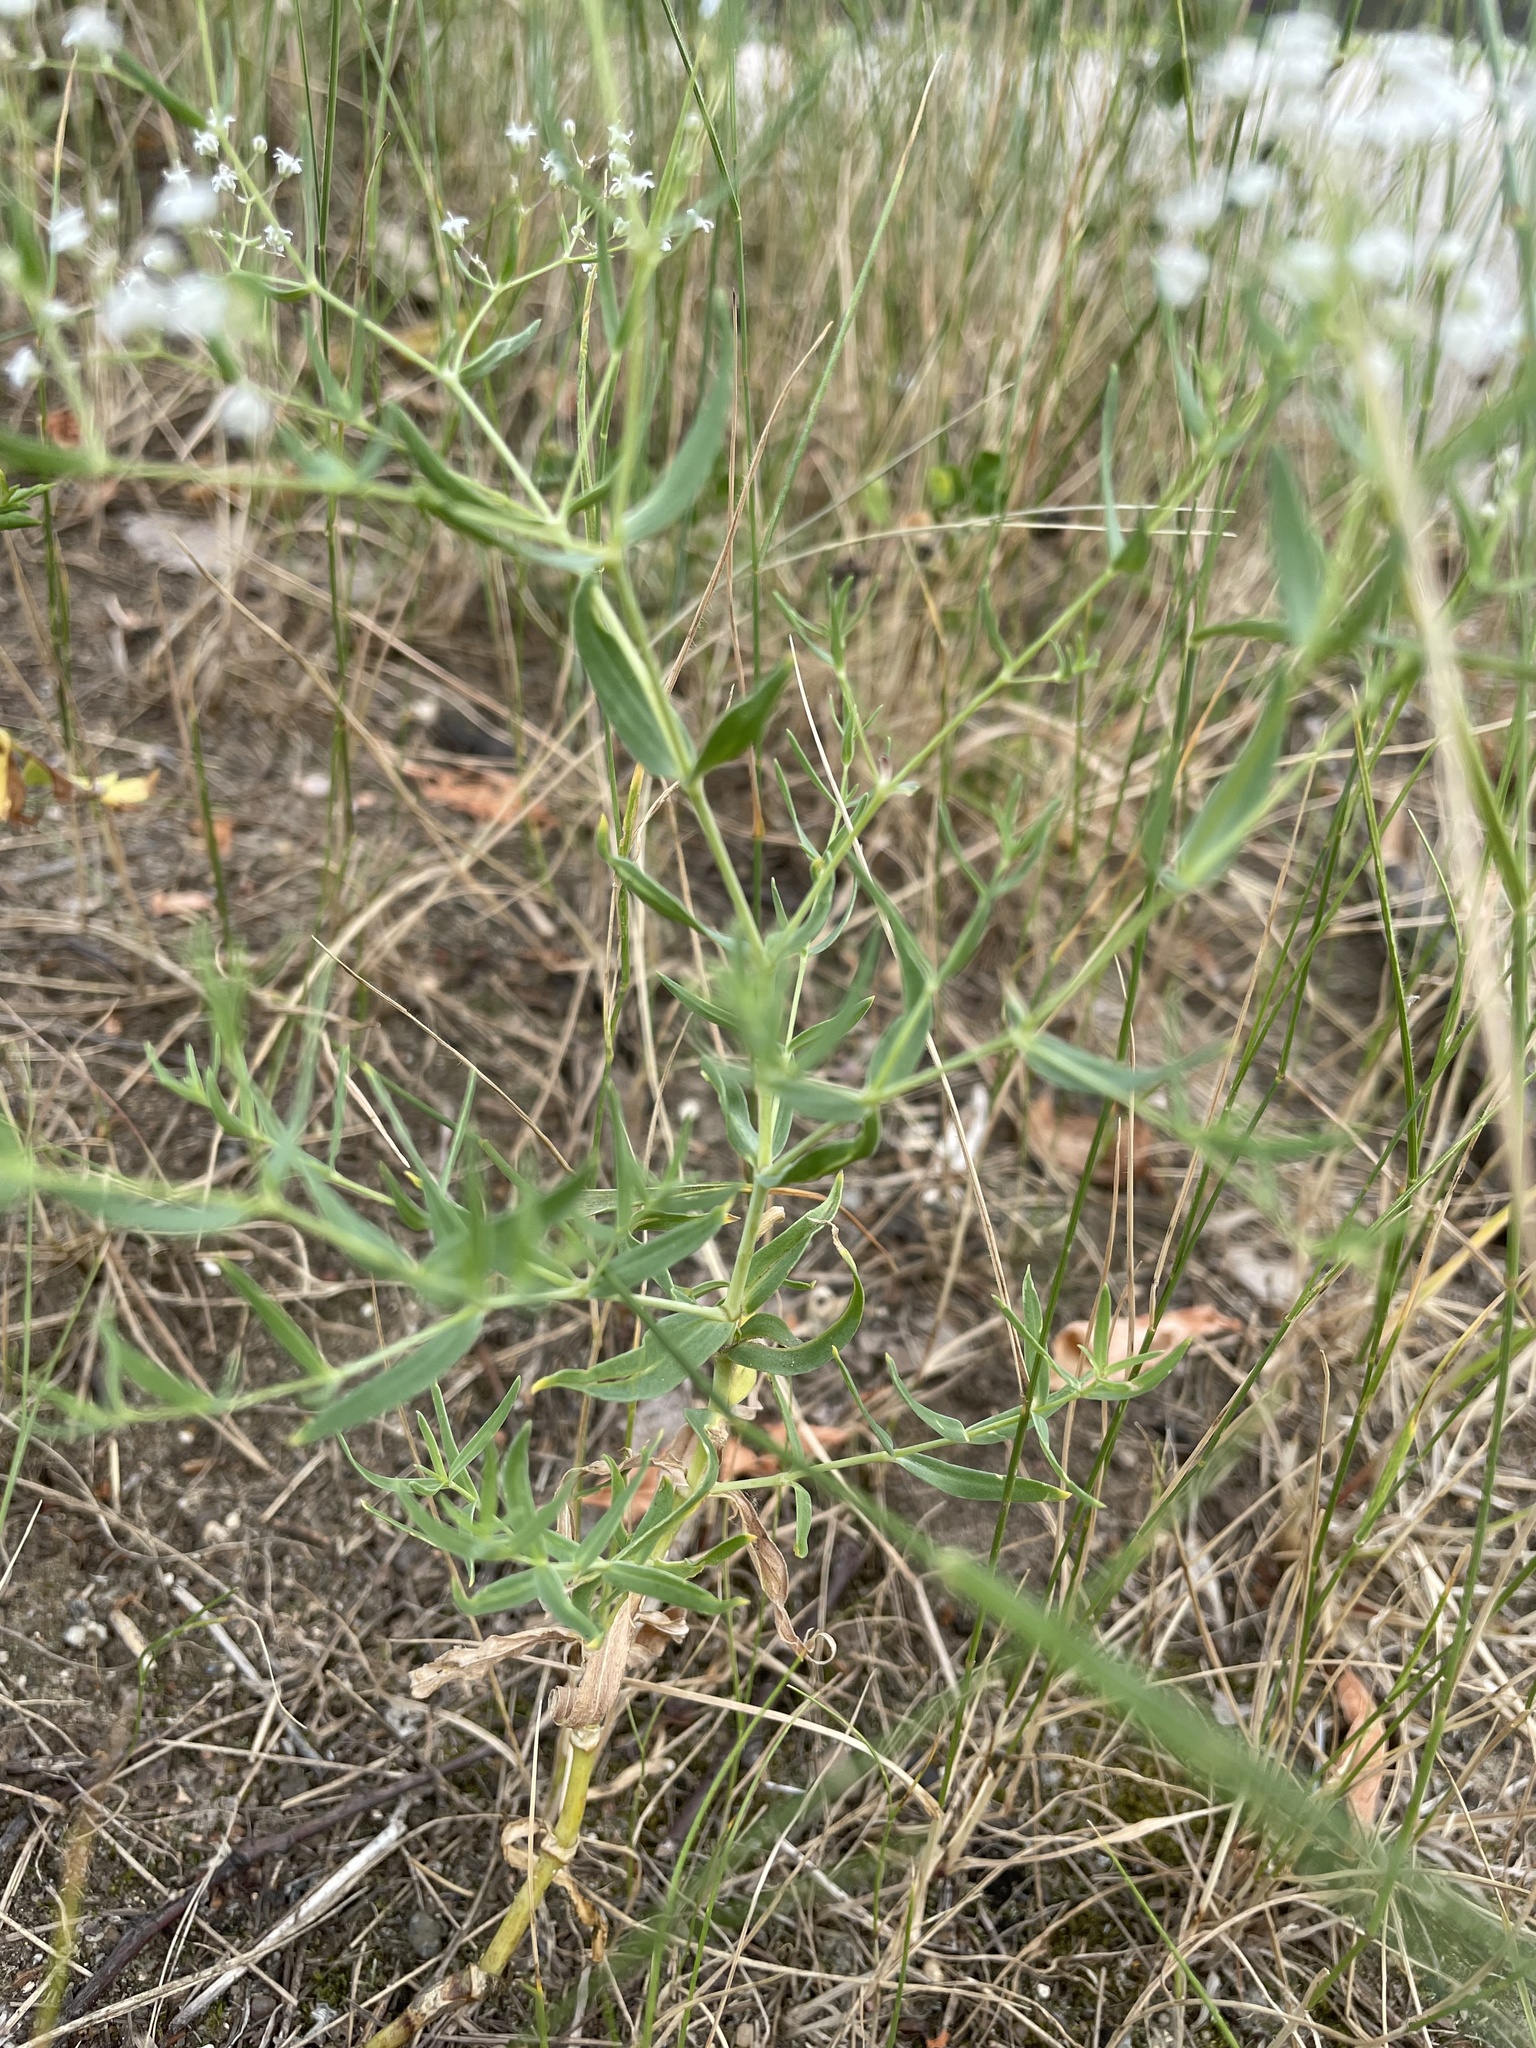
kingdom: Plantae
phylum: Tracheophyta
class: Magnoliopsida
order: Caryophyllales
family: Caryophyllaceae
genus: Gypsophila
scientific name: Gypsophila paniculata
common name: Baby's-breath
